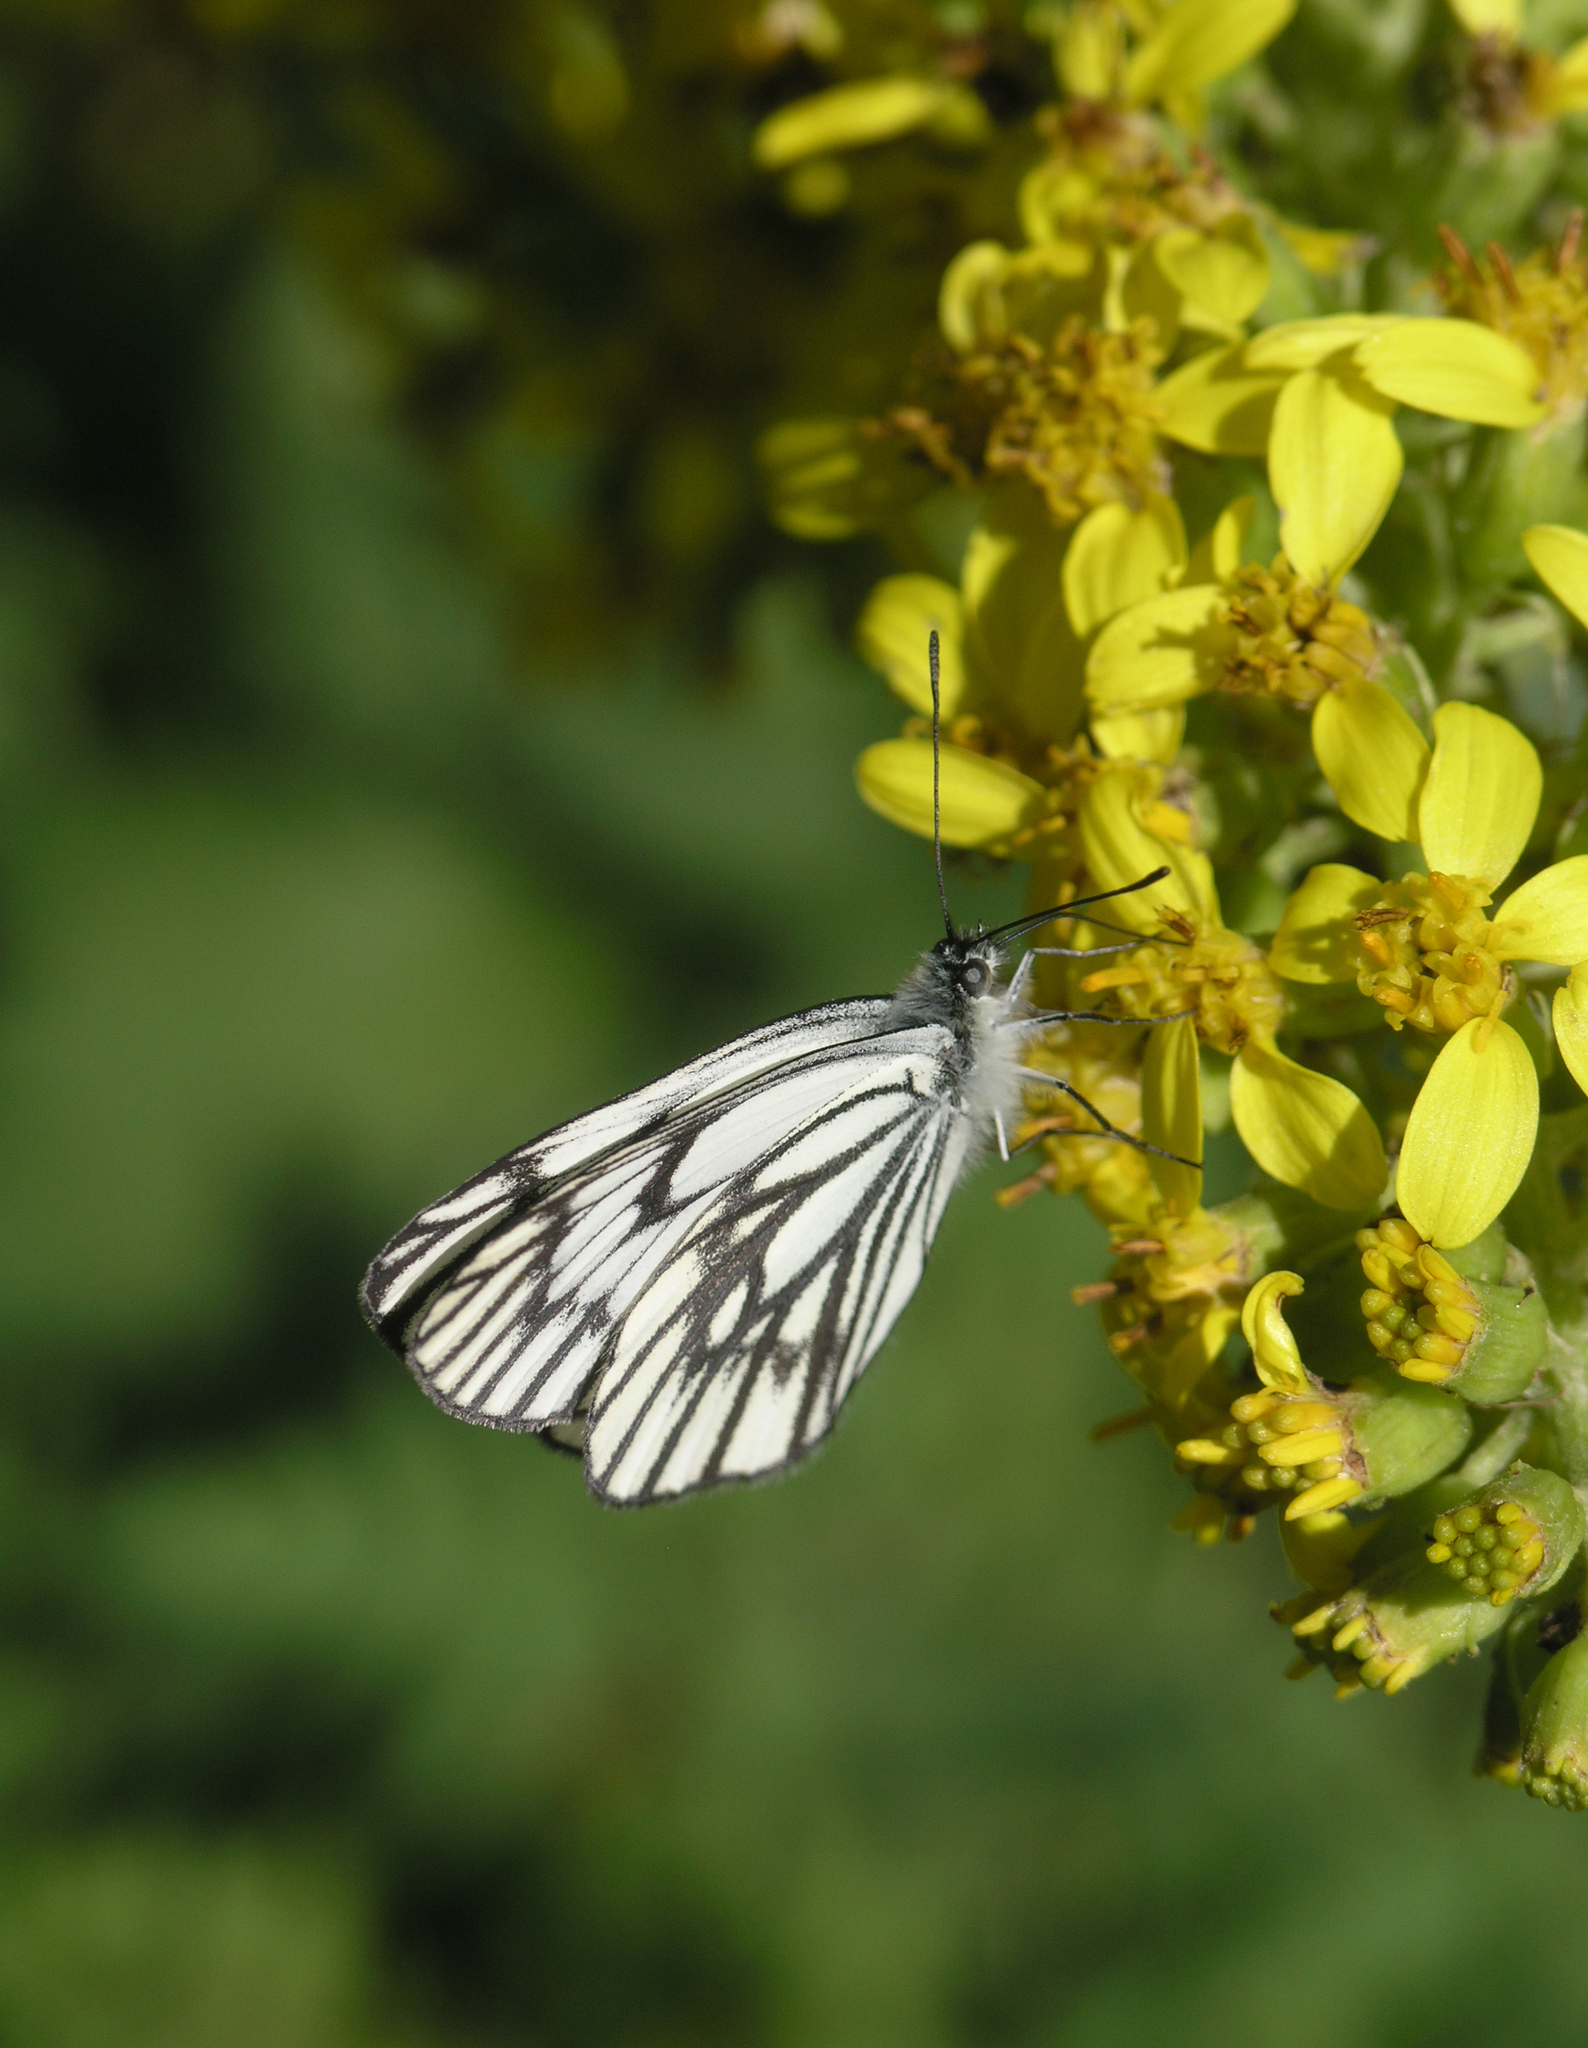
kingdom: Animalia
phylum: Arthropoda
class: Insecta
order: Lepidoptera
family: Pieridae
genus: Aporia
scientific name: Aporia leucodice
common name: Himalayan blackvein
